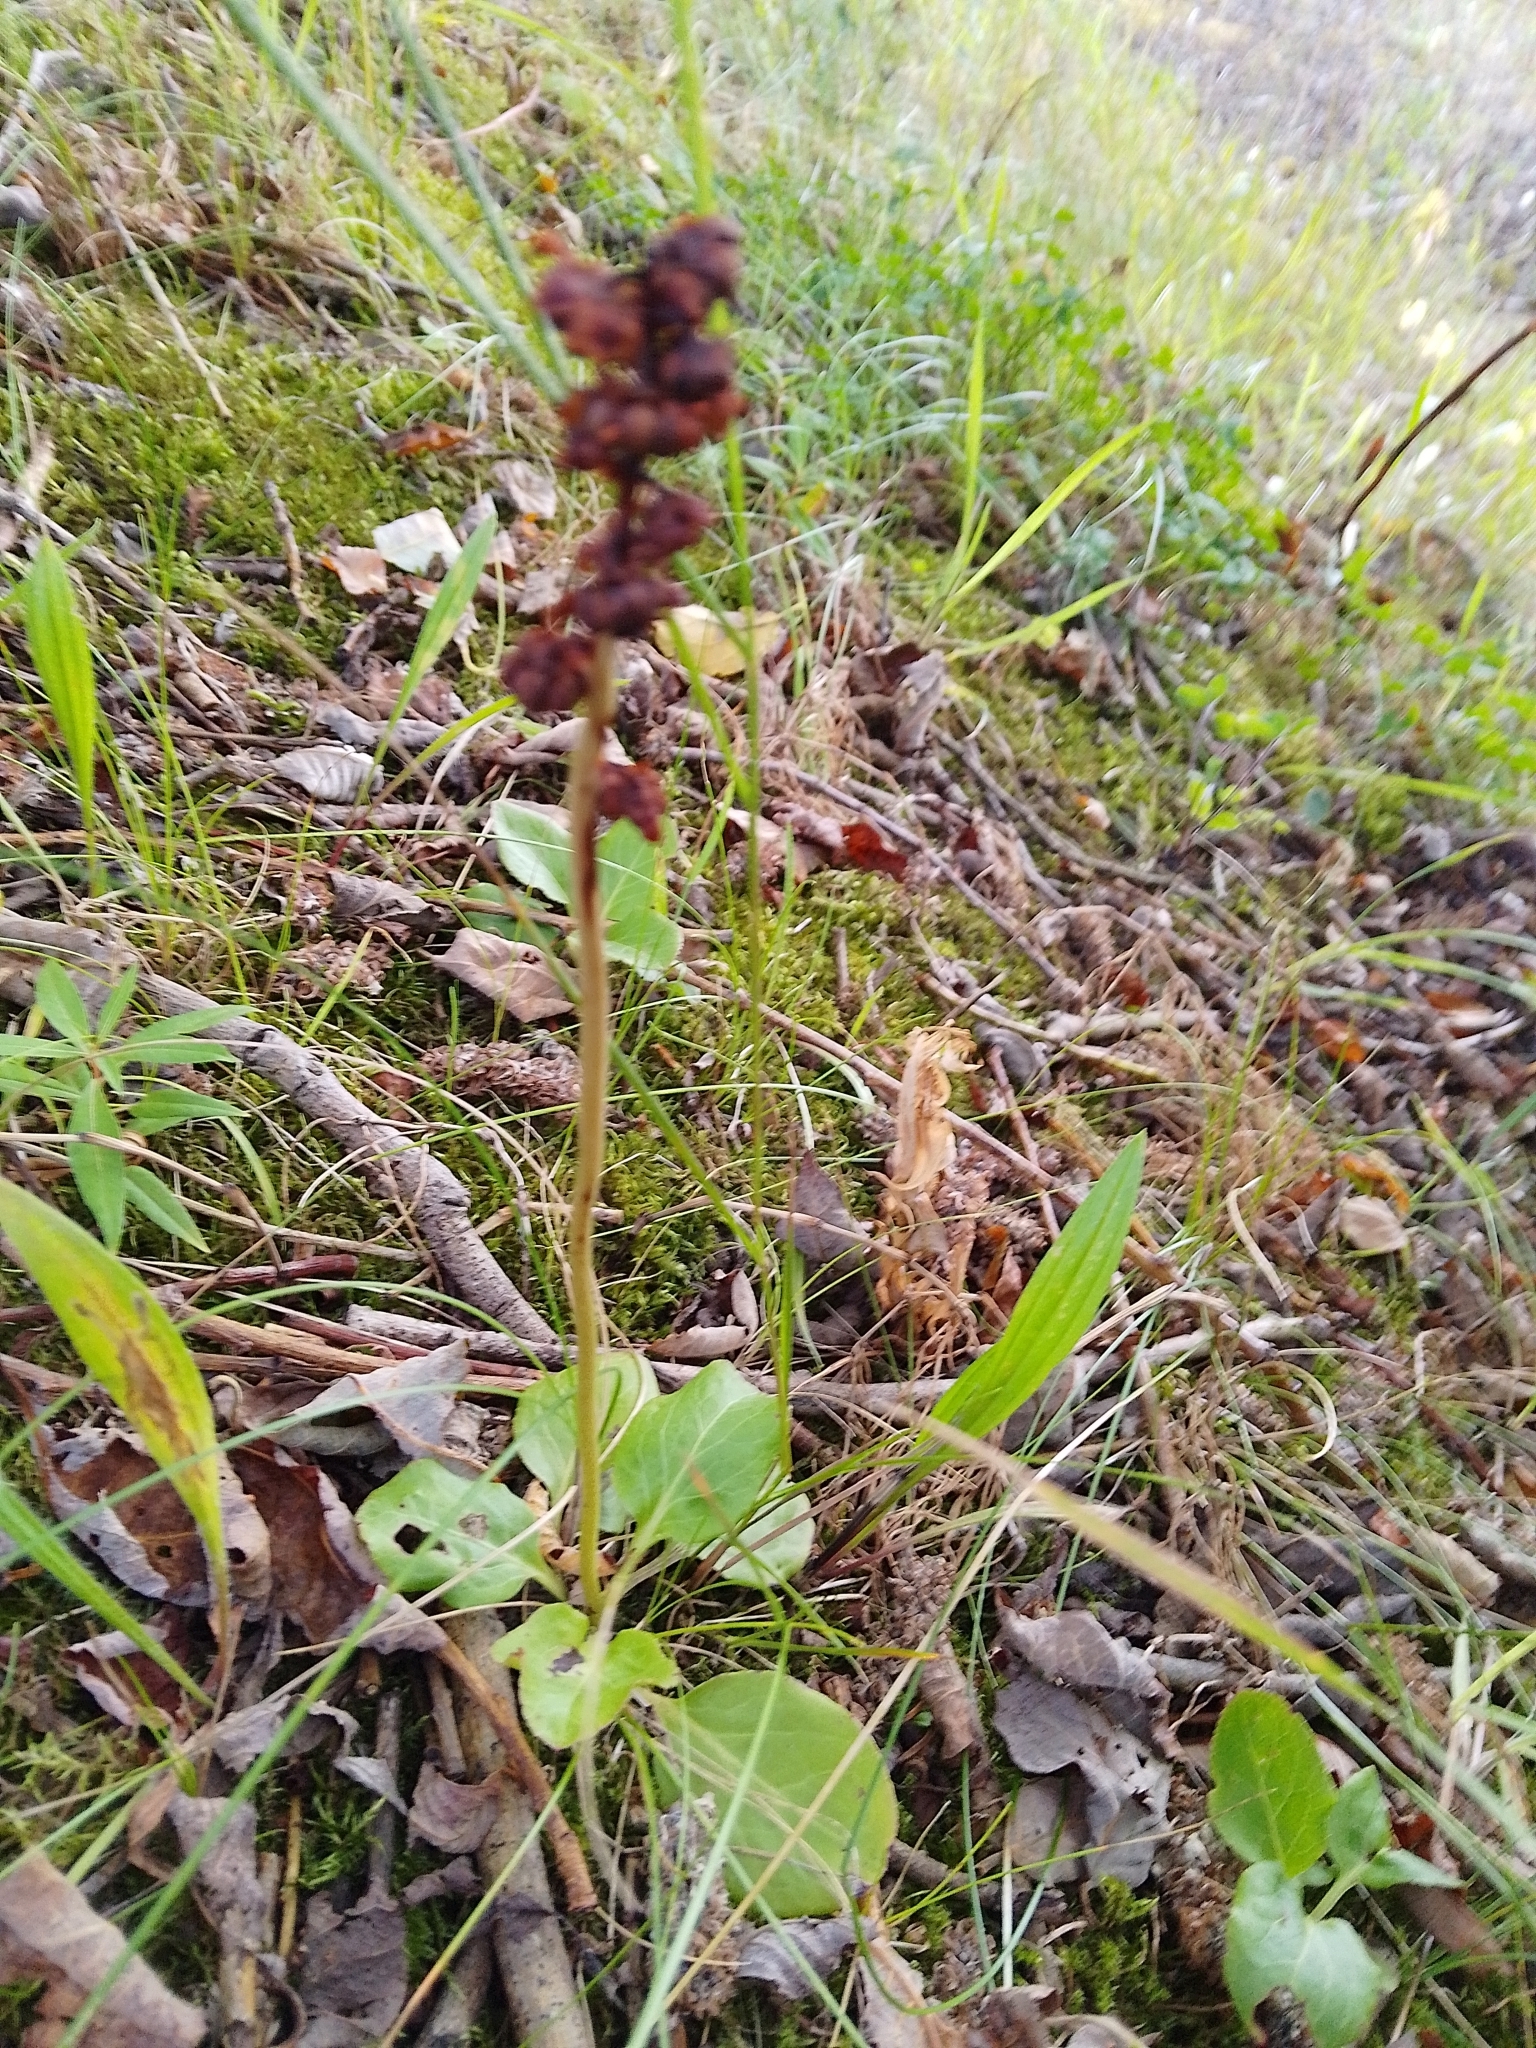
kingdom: Plantae
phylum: Tracheophyta
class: Magnoliopsida
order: Ericales
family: Ericaceae
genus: Pyrola
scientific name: Pyrola minor
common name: Common wintergreen
